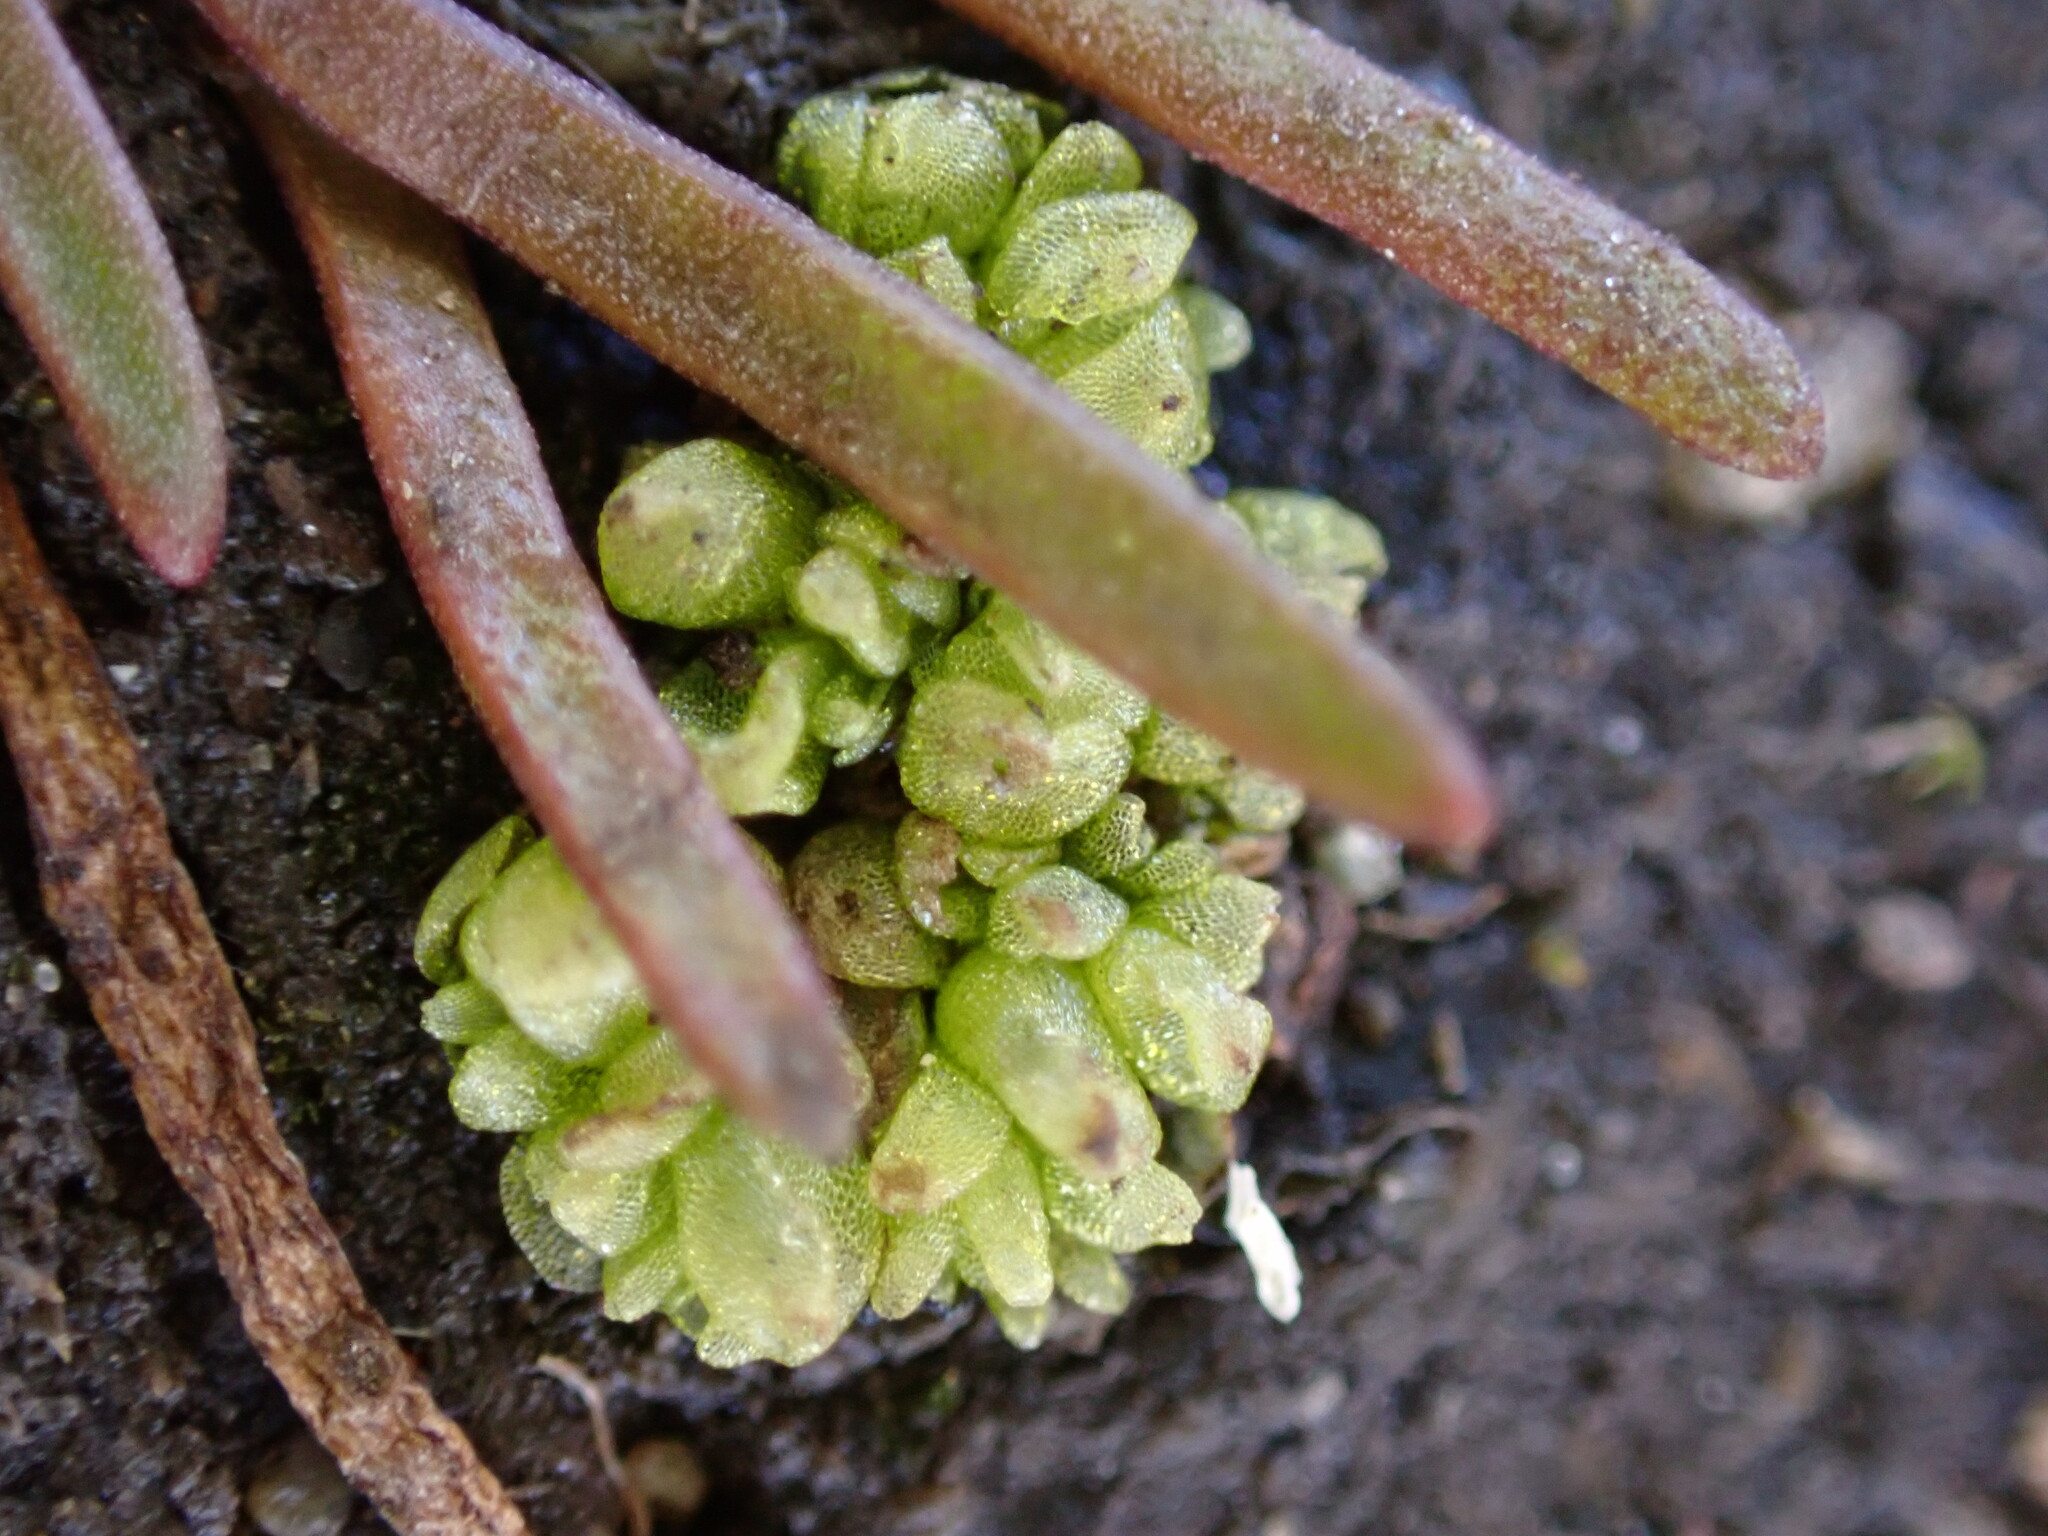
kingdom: Plantae
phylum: Marchantiophyta
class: Marchantiopsida
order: Sphaerocarpales
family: Sphaerocarpaceae
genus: Sphaerocarpos
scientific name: Sphaerocarpos texanus
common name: Texas balloonwort
